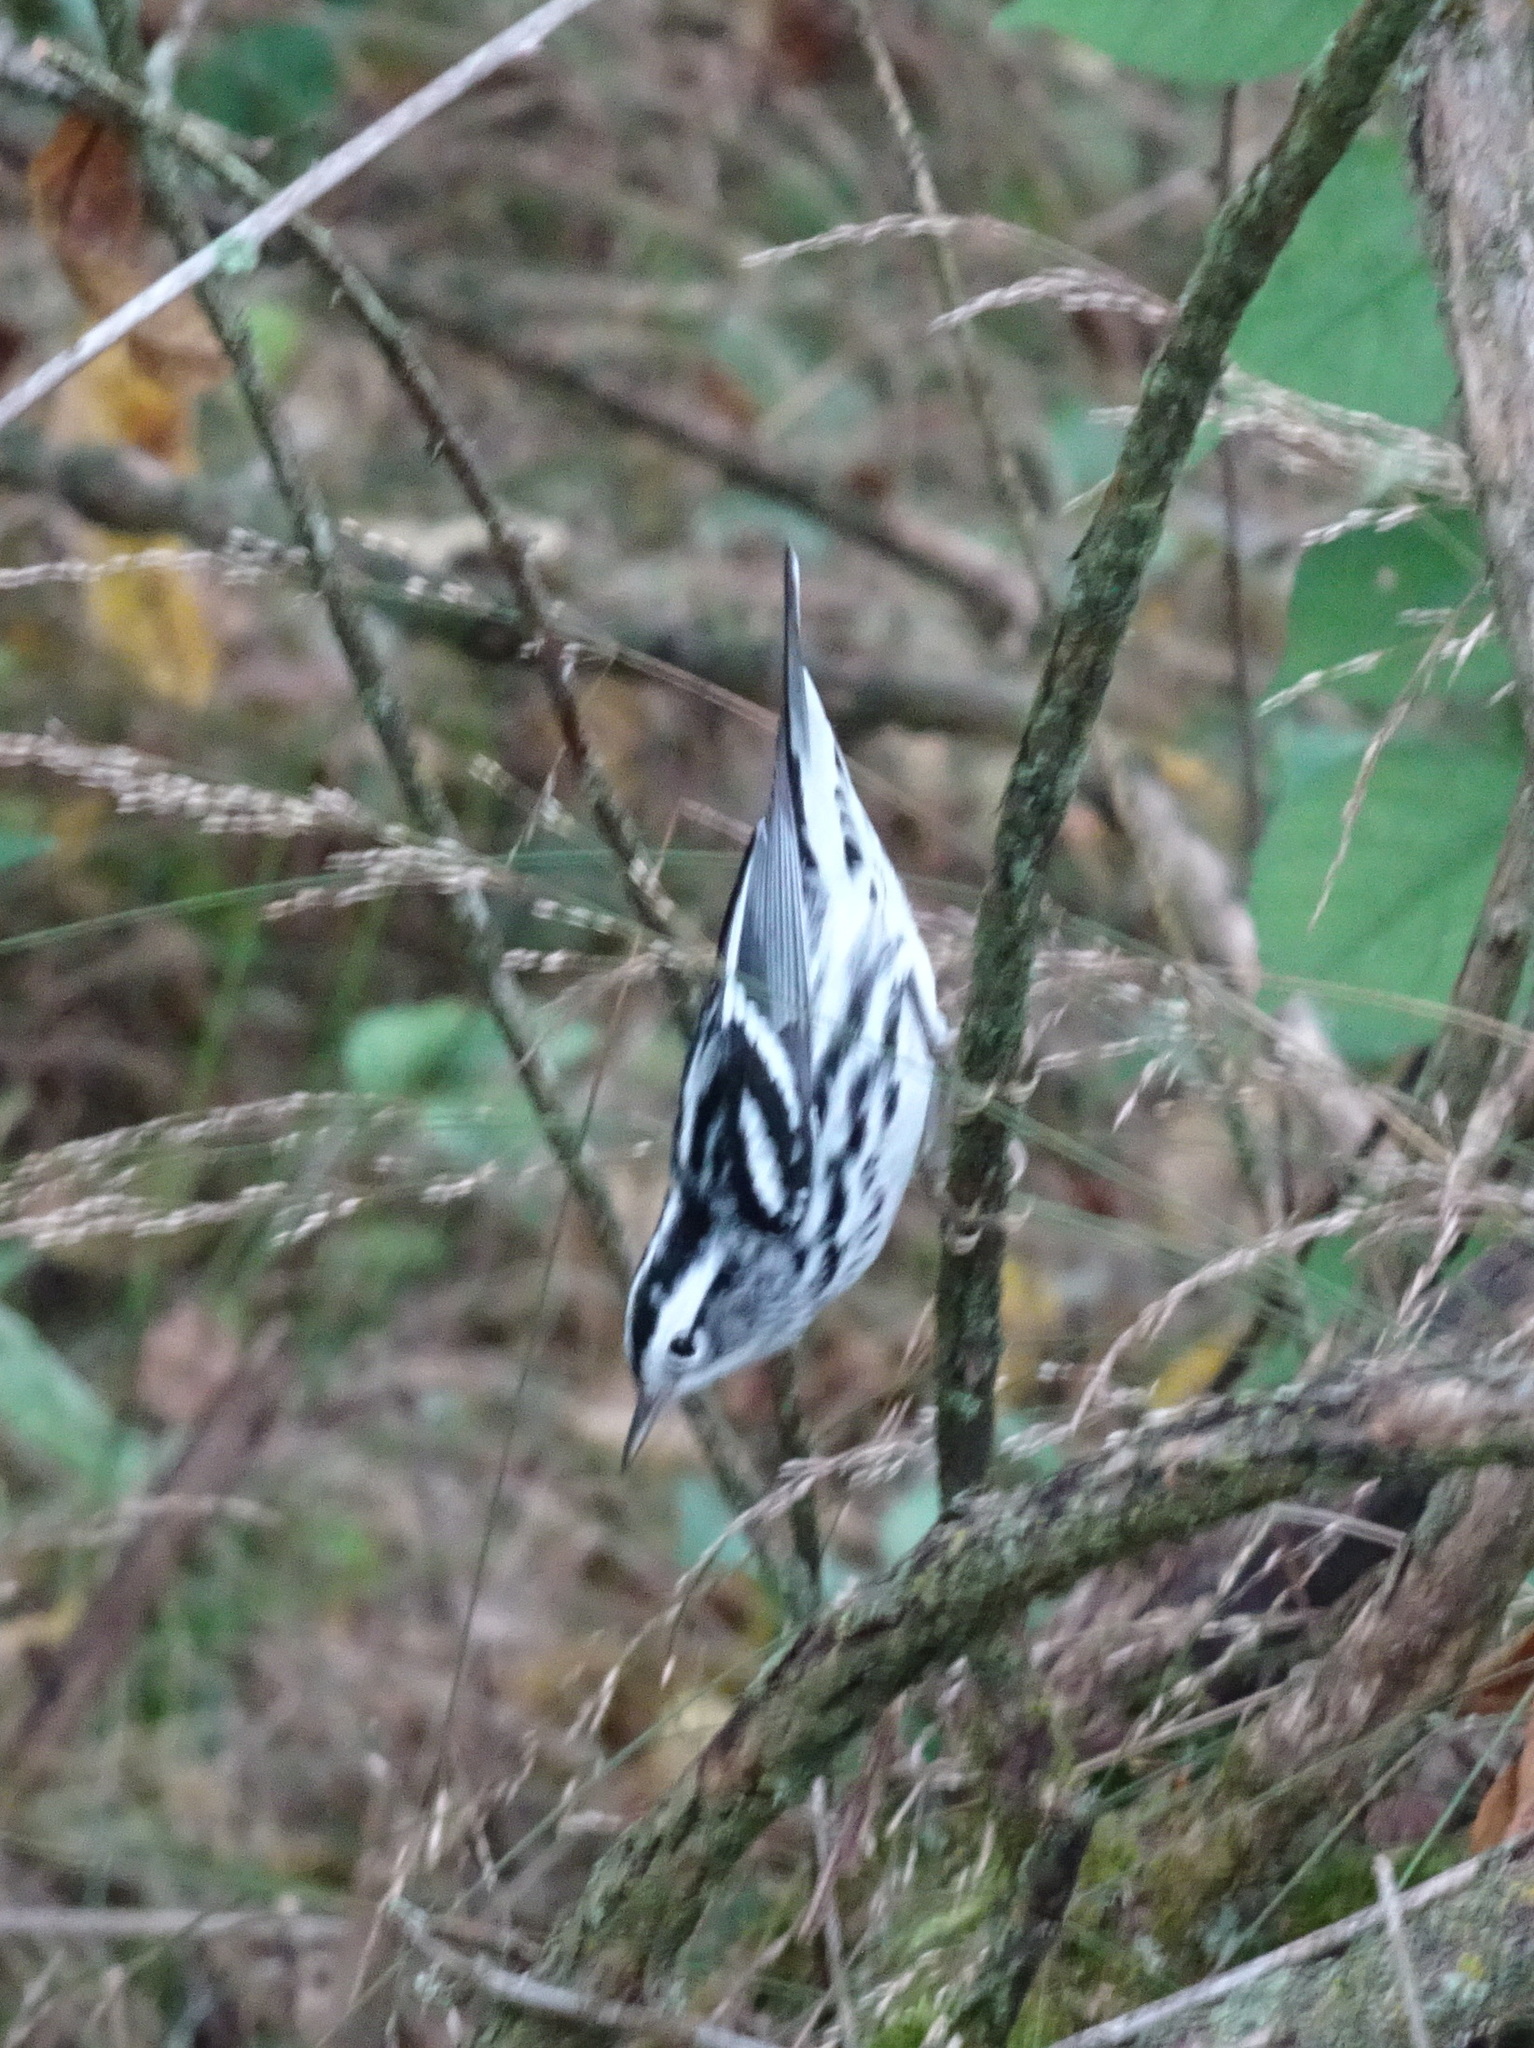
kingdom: Animalia
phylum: Chordata
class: Aves
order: Passeriformes
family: Parulidae
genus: Mniotilta
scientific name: Mniotilta varia
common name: Black-and-white warbler
